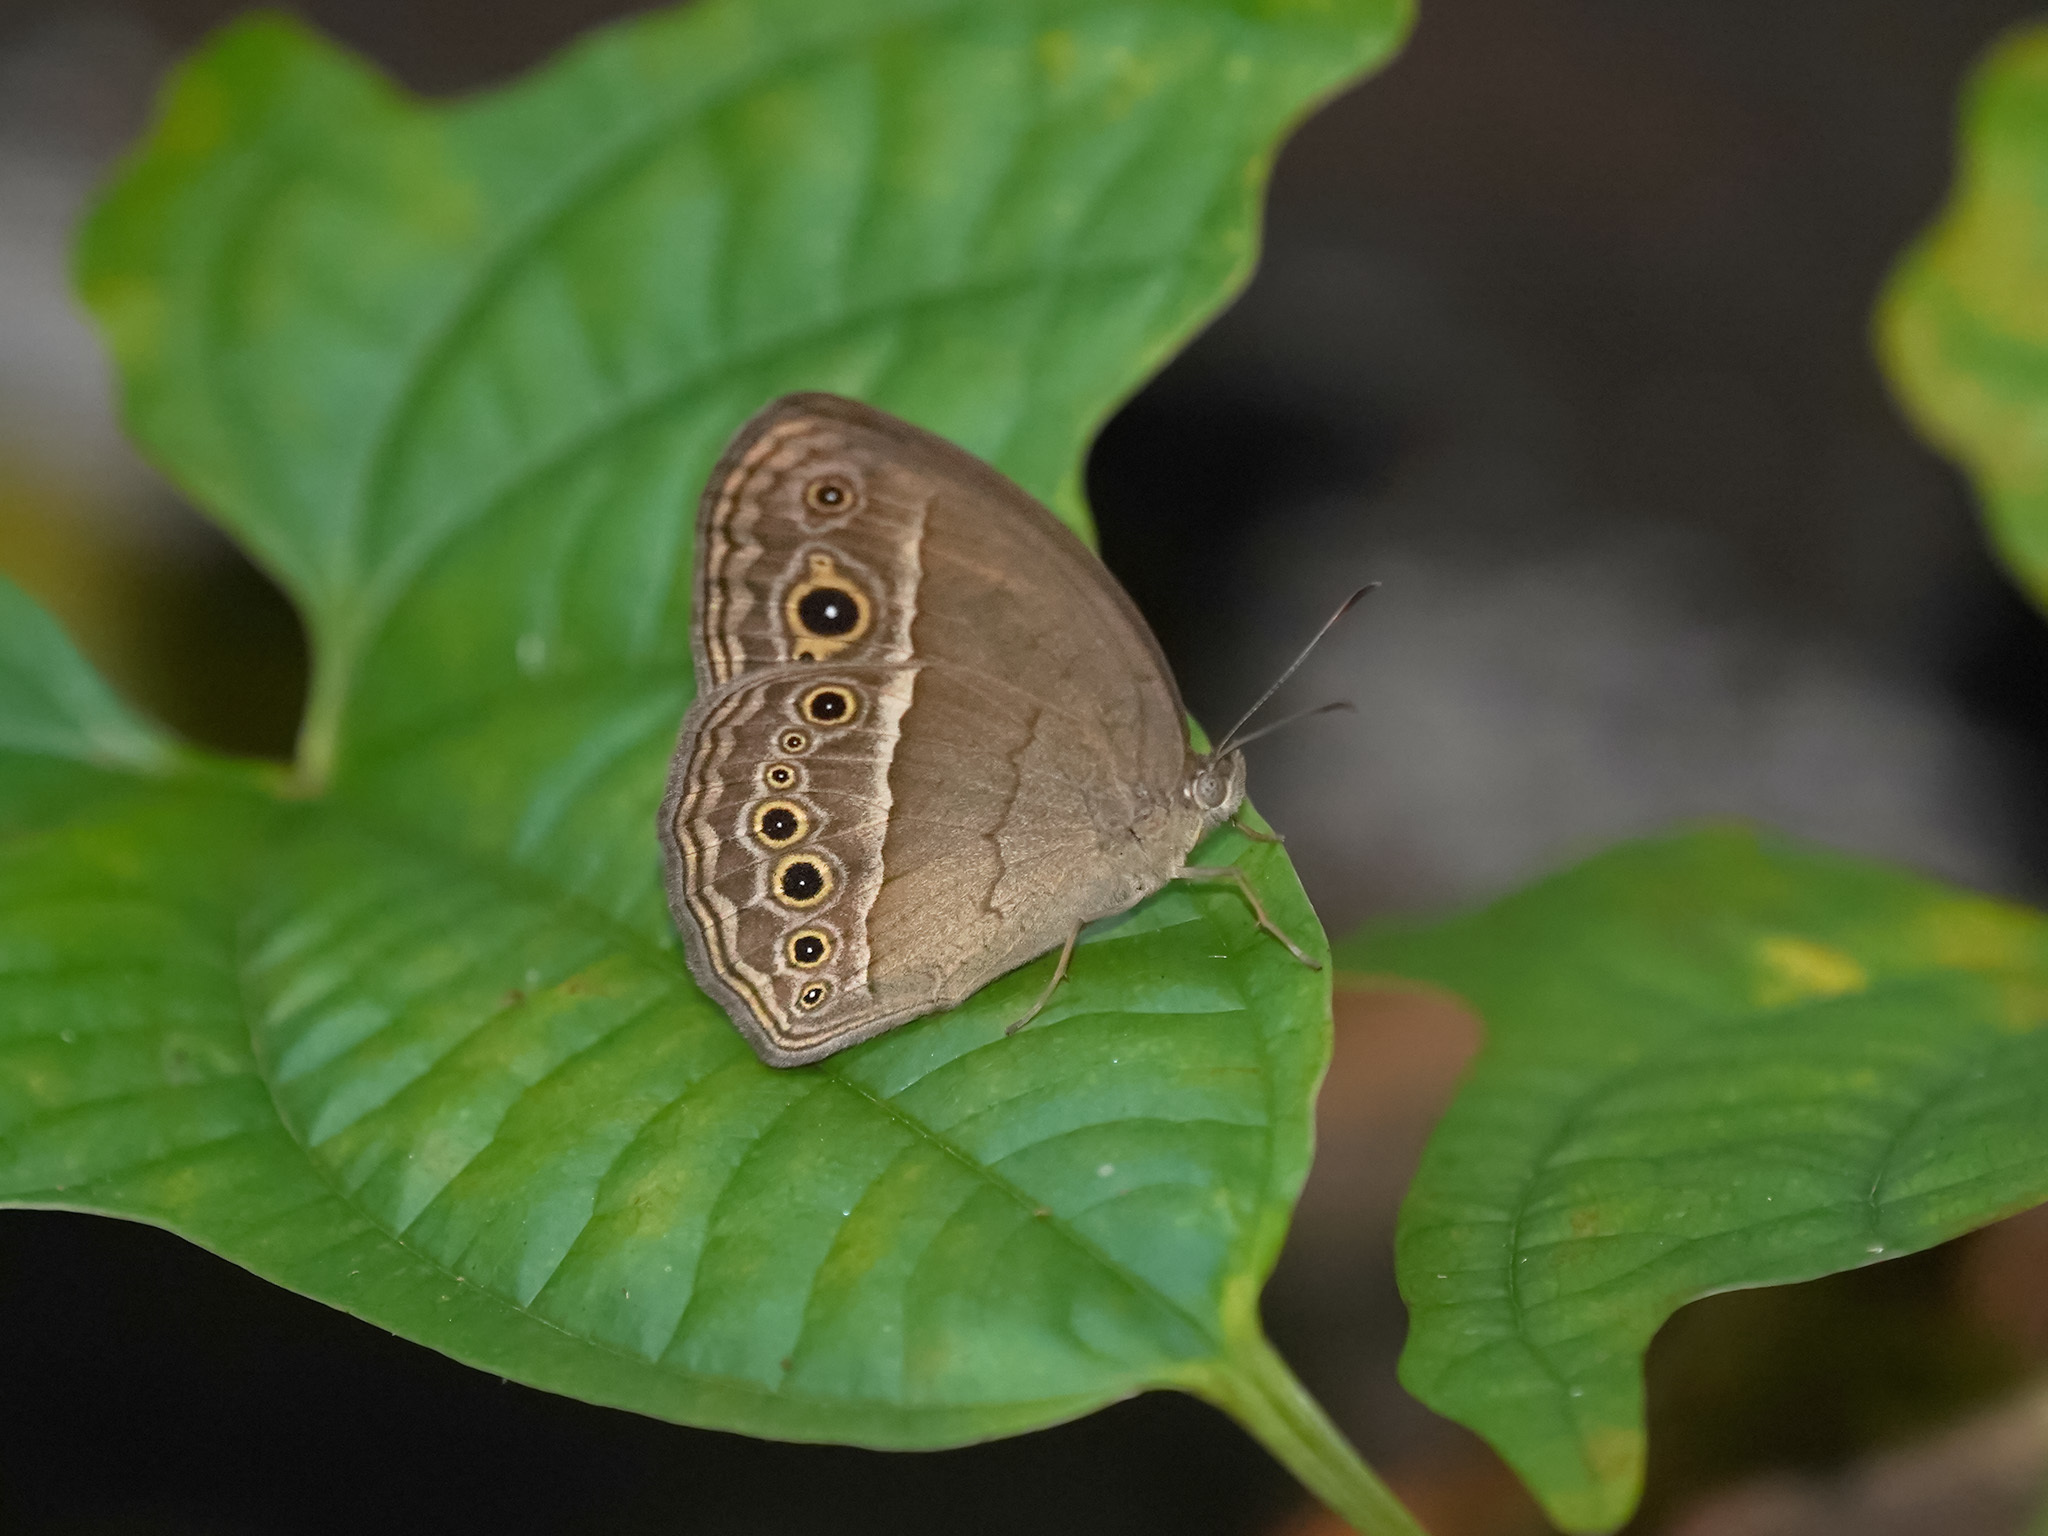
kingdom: Animalia
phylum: Arthropoda
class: Insecta
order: Lepidoptera
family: Nymphalidae
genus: Mycalesis
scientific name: Mycalesis perseoides
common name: Burmese bushbrown
